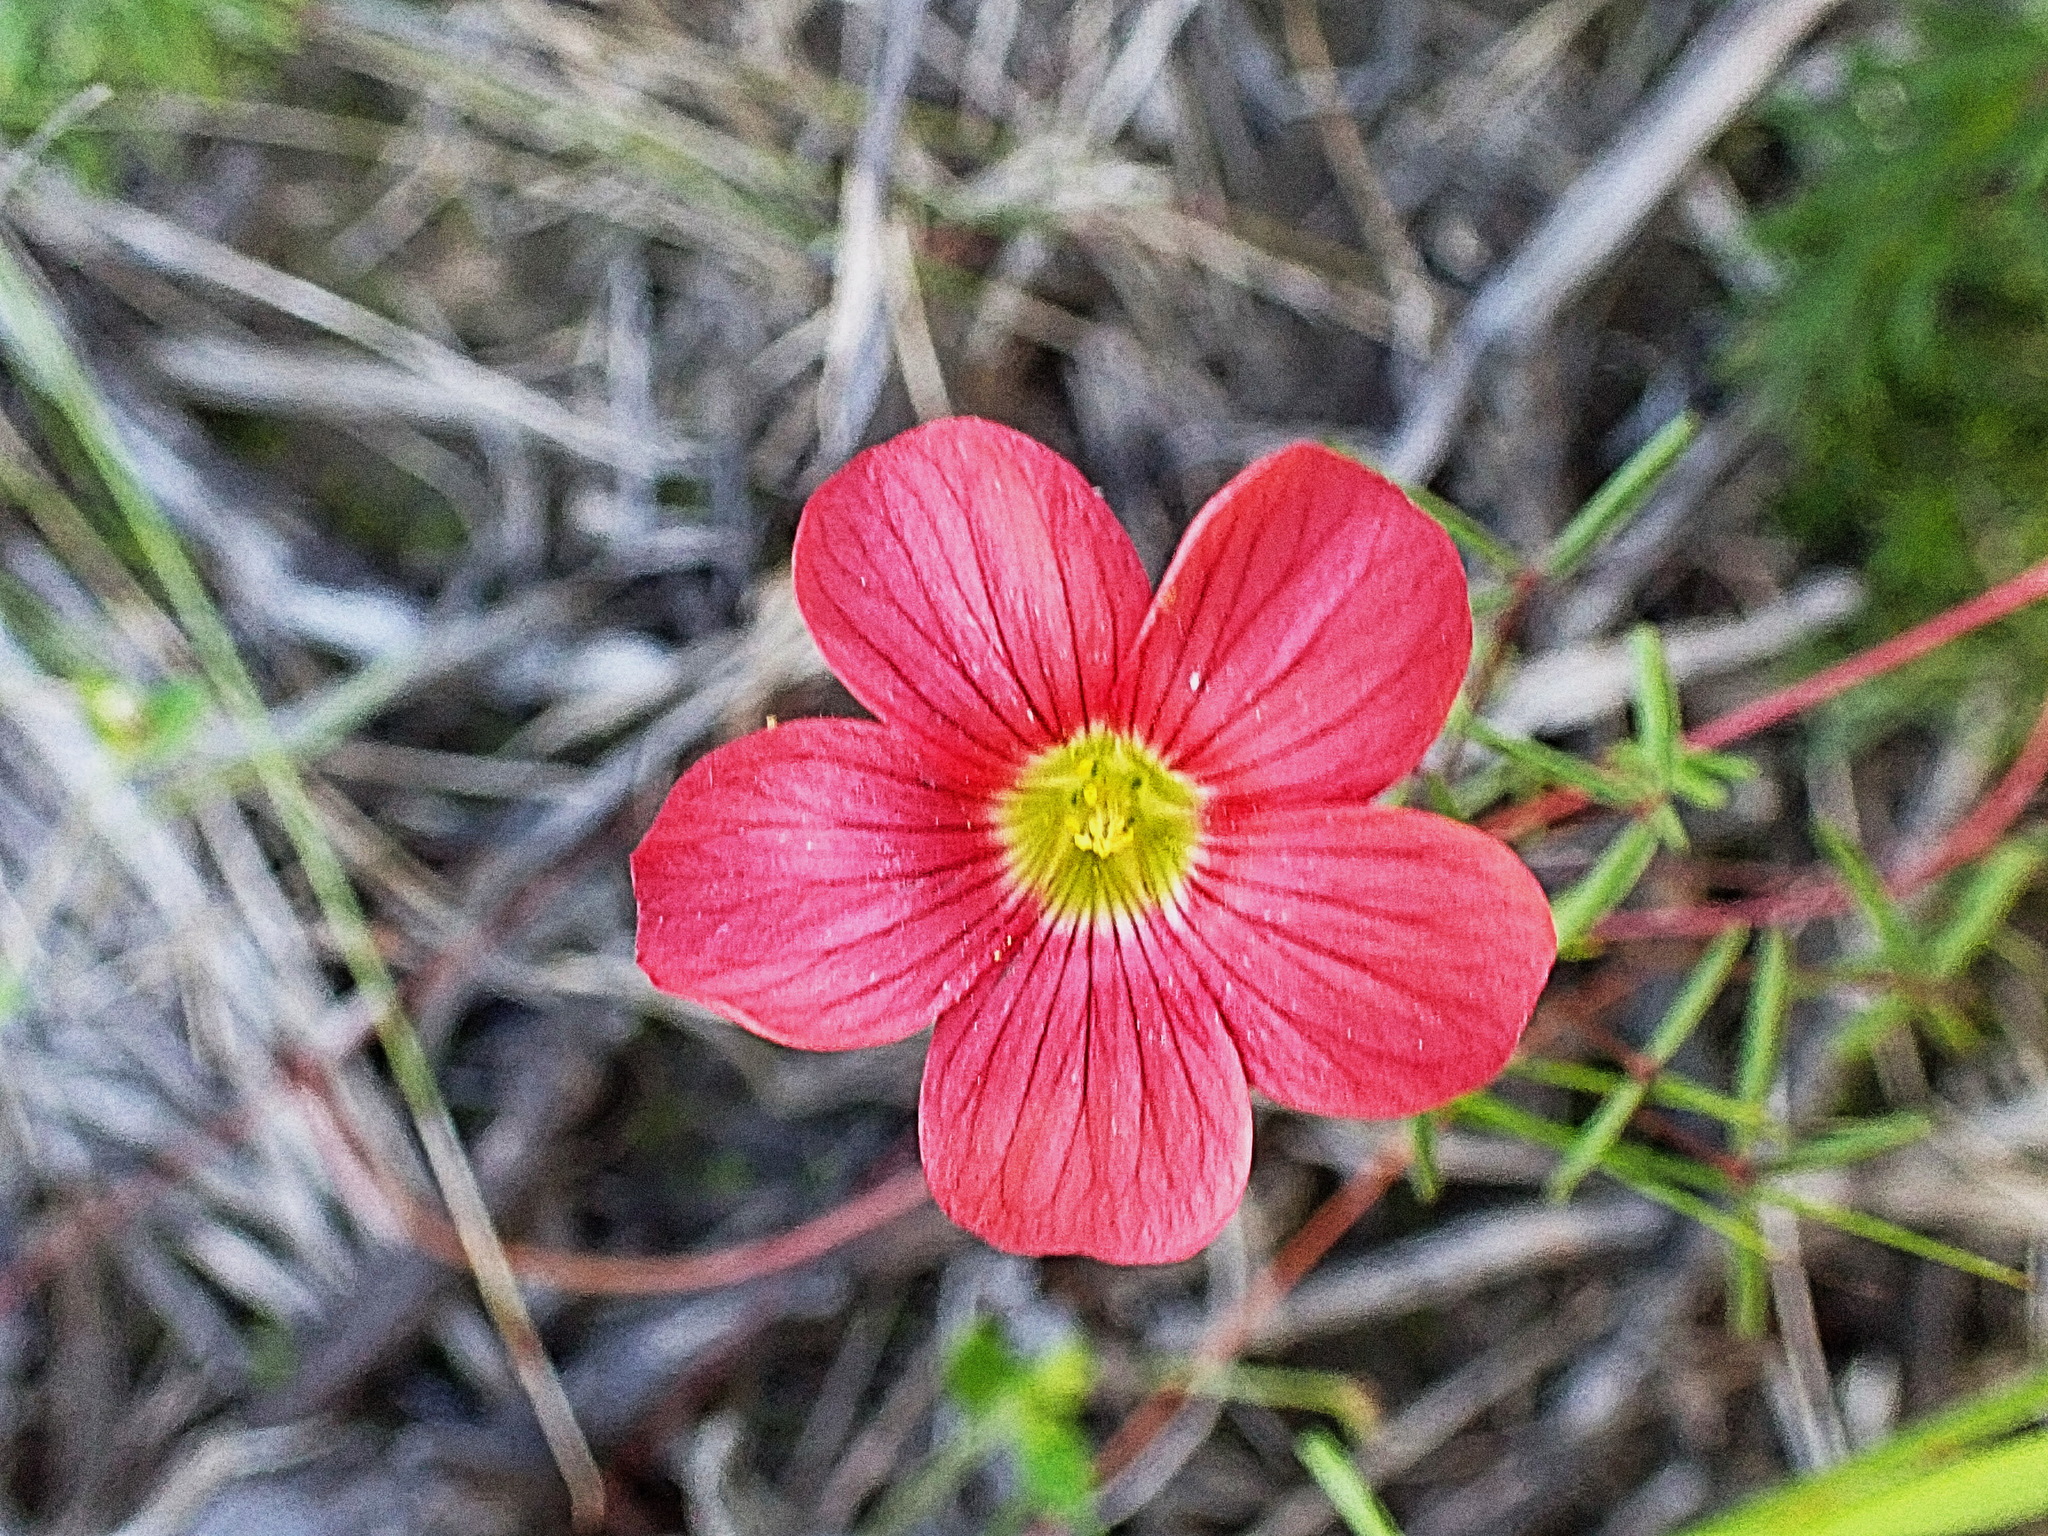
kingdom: Plantae
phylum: Tracheophyta
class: Magnoliopsida
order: Oxalidales
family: Oxalidaceae
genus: Oxalis
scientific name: Oxalis pendulifolia
